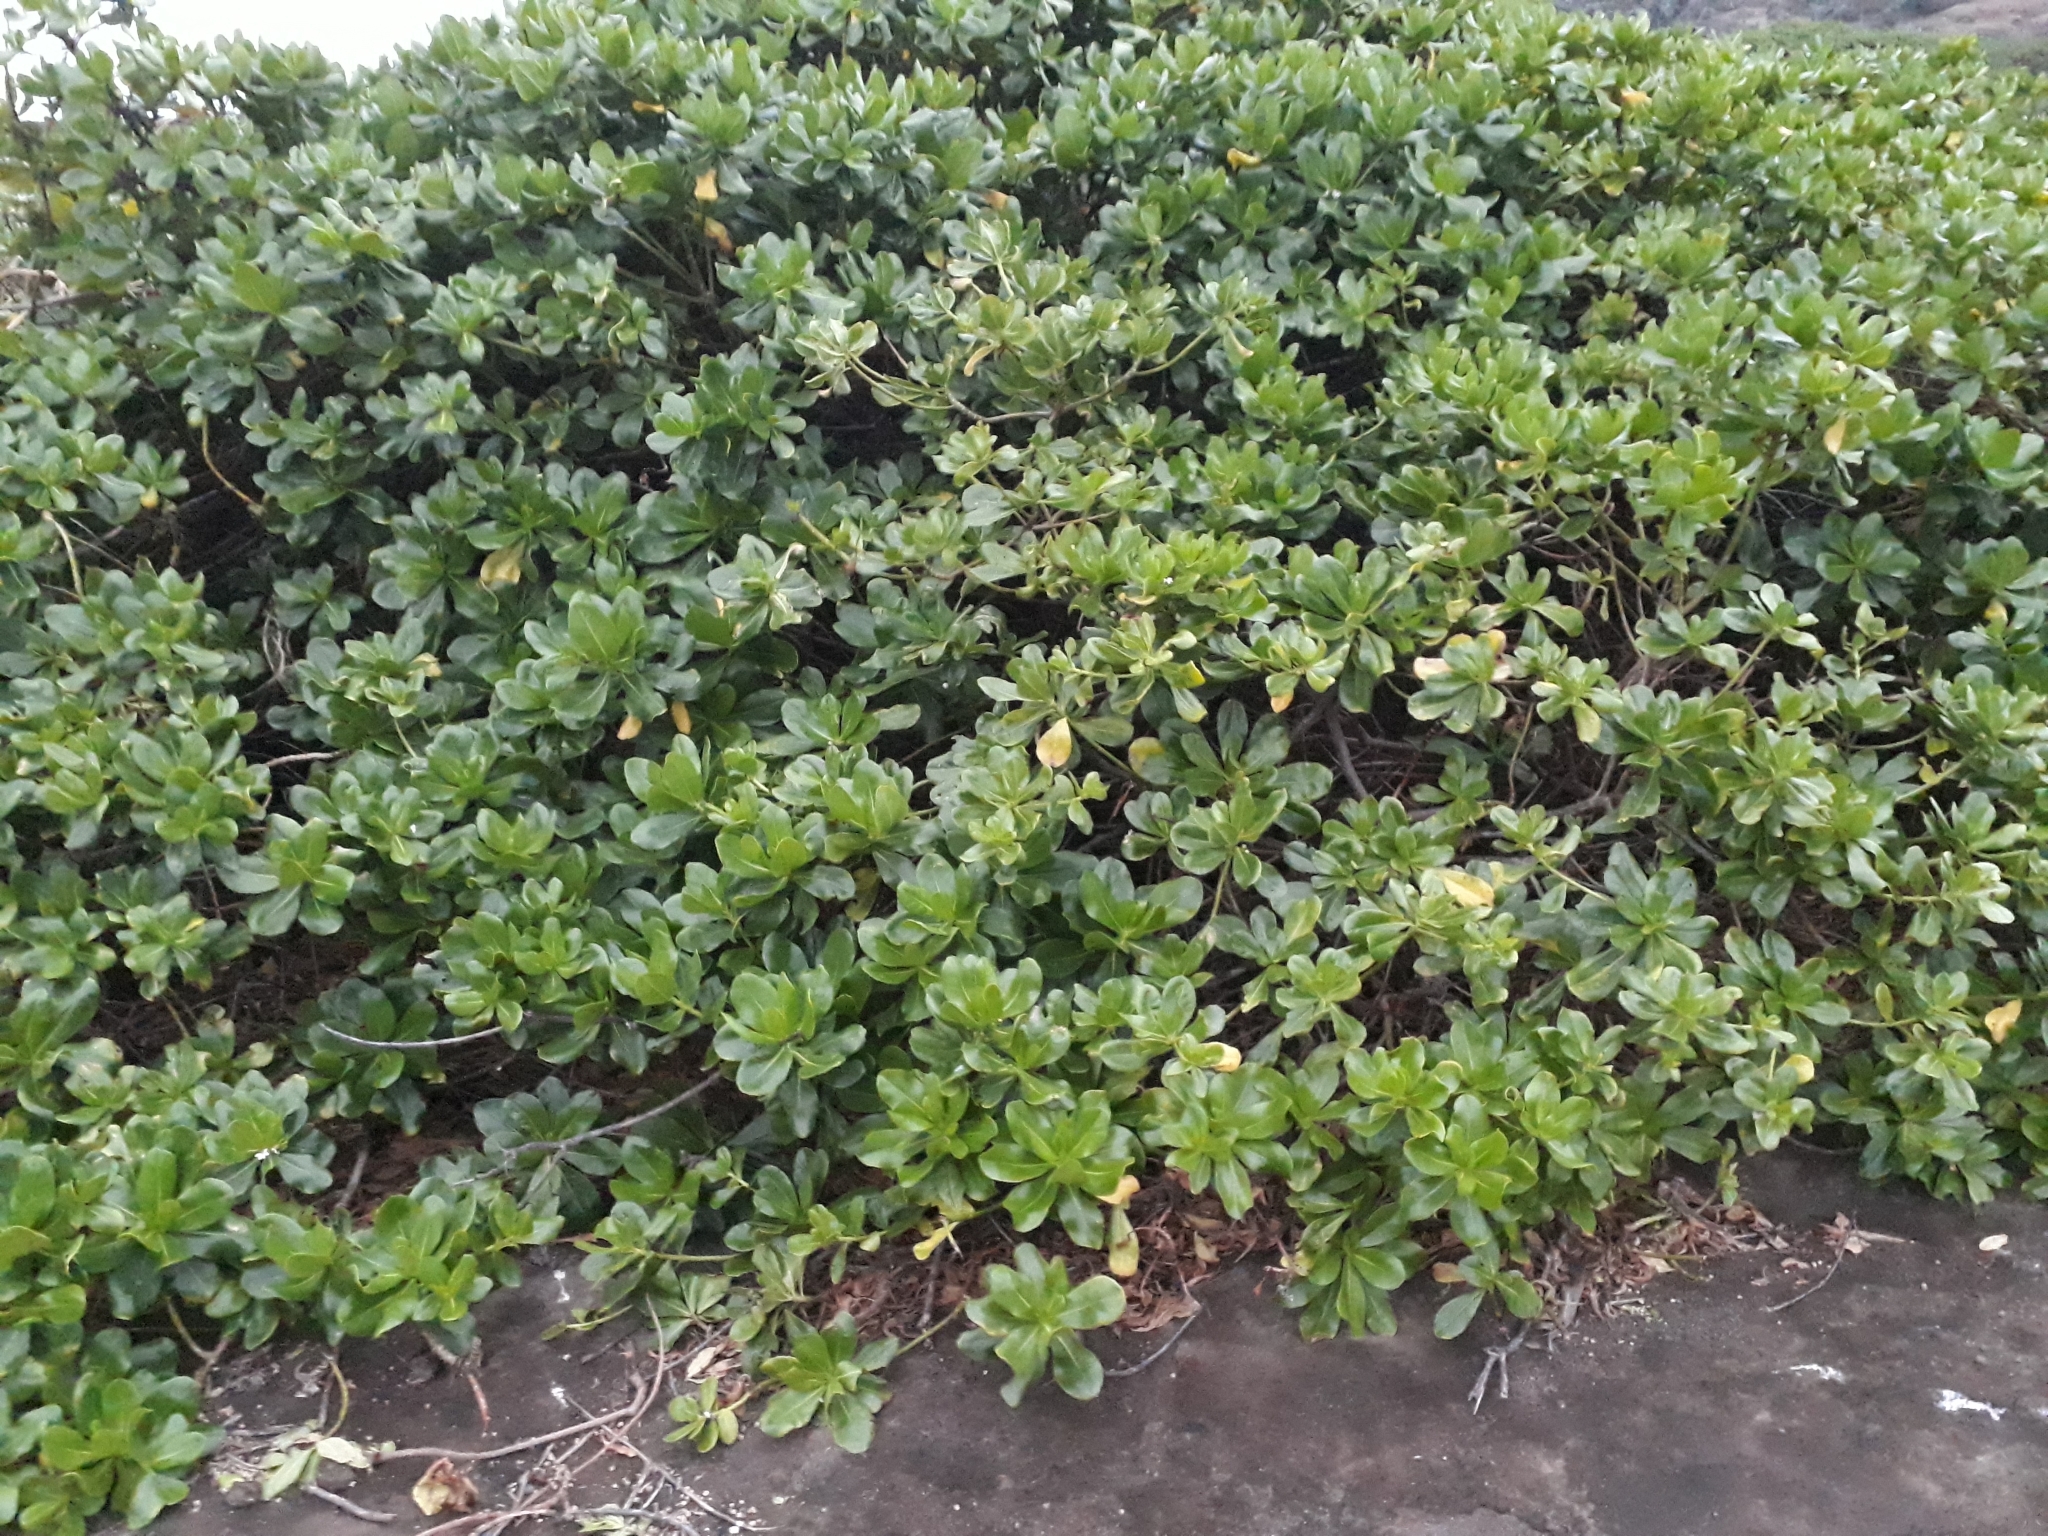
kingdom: Plantae
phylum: Tracheophyta
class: Magnoliopsida
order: Asterales
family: Goodeniaceae
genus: Scaevola
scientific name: Scaevola taccada
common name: Sea lettucetree
